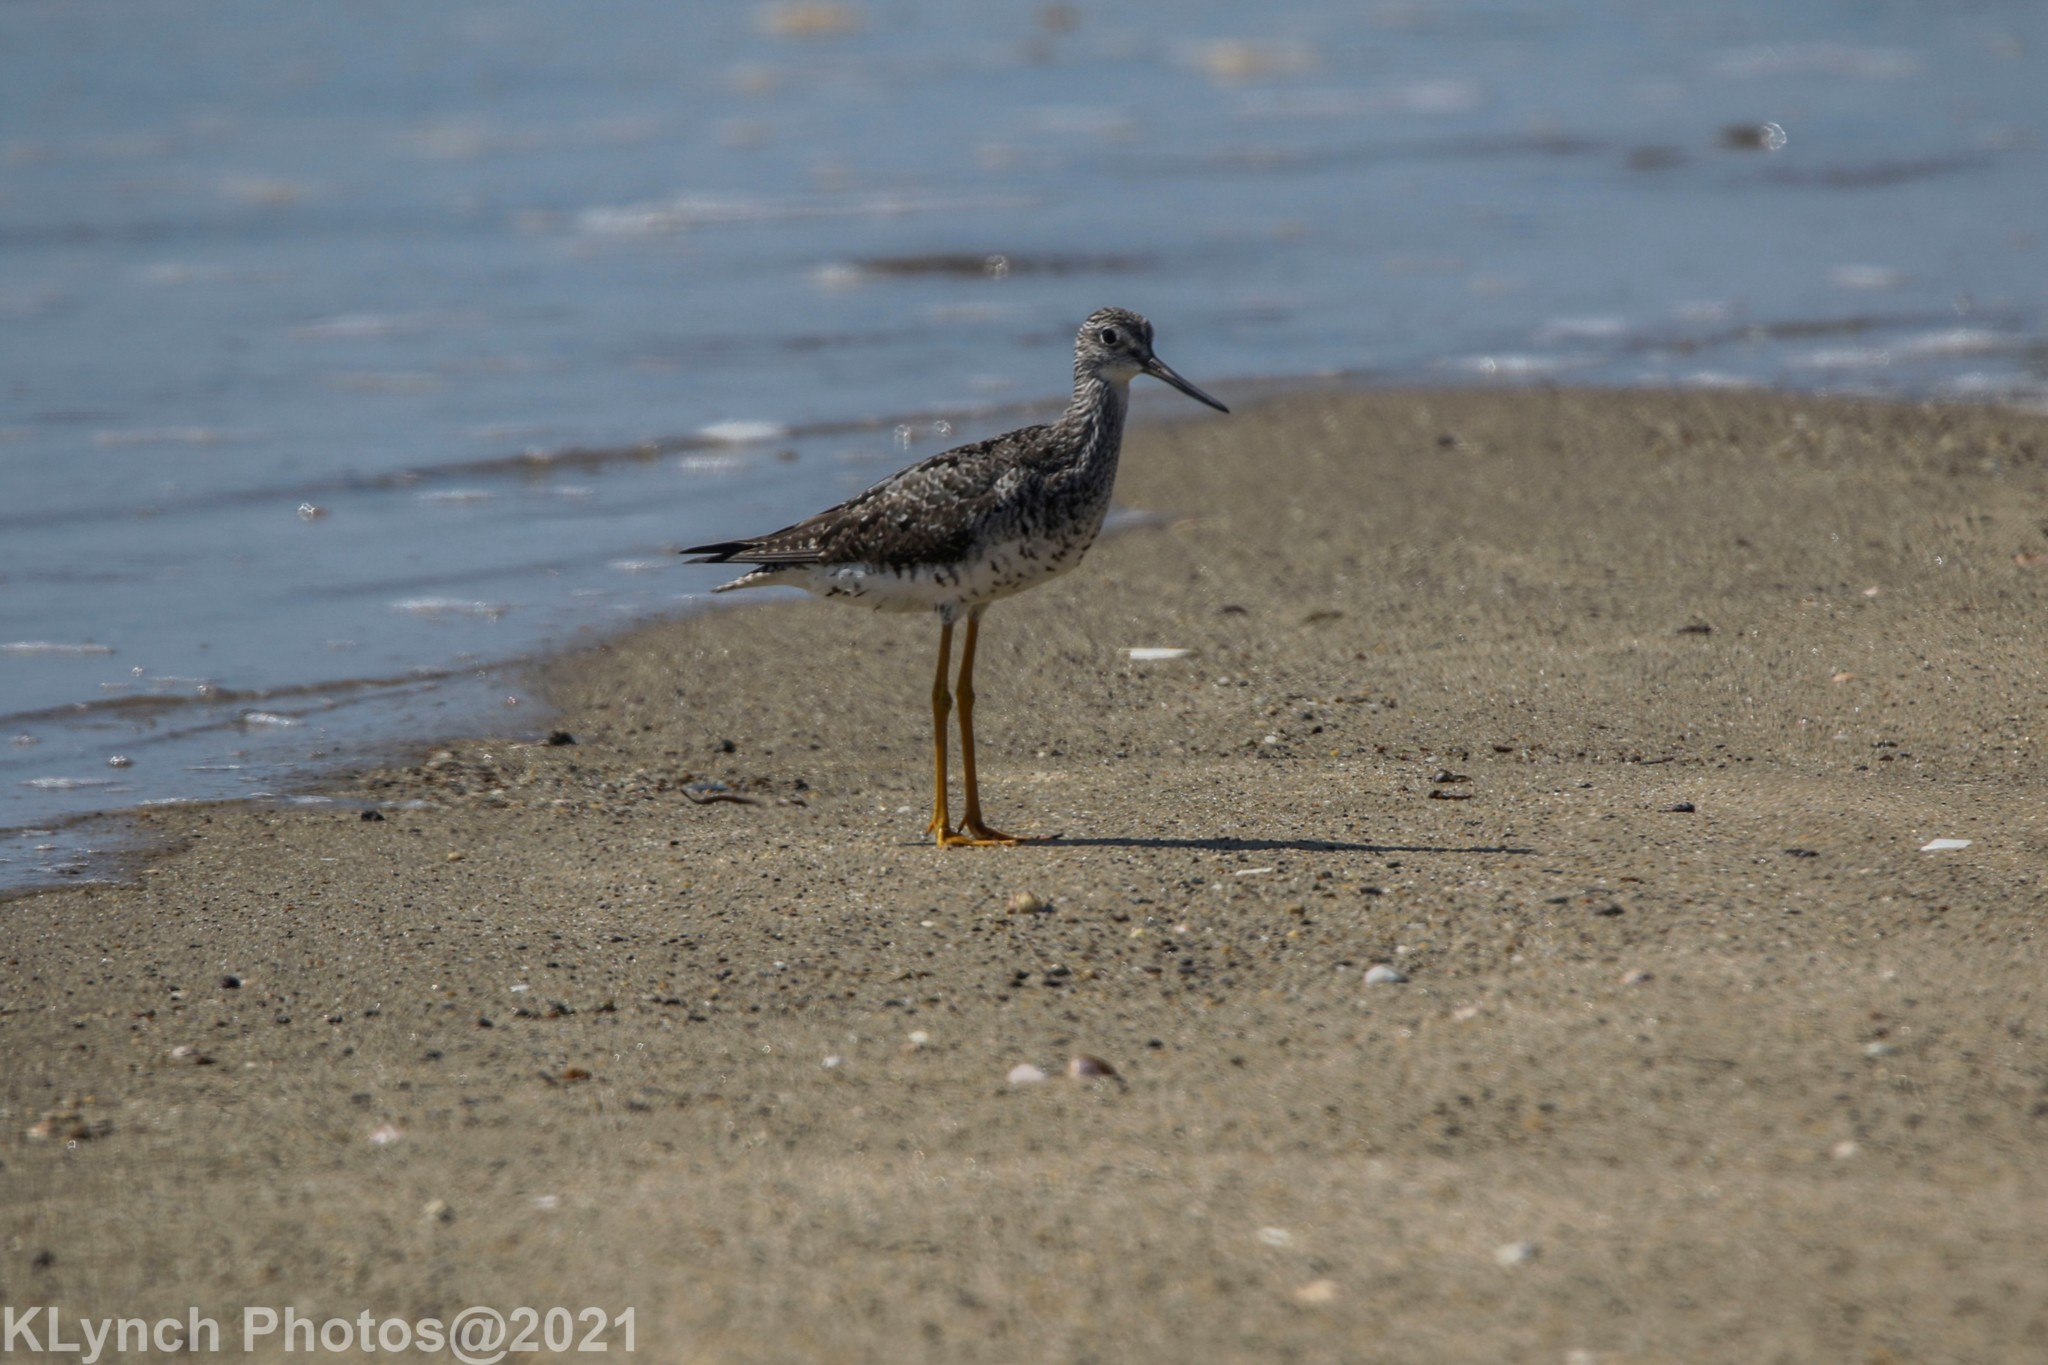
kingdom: Animalia
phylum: Chordata
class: Aves
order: Charadriiformes
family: Scolopacidae
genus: Tringa
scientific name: Tringa melanoleuca
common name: Greater yellowlegs
